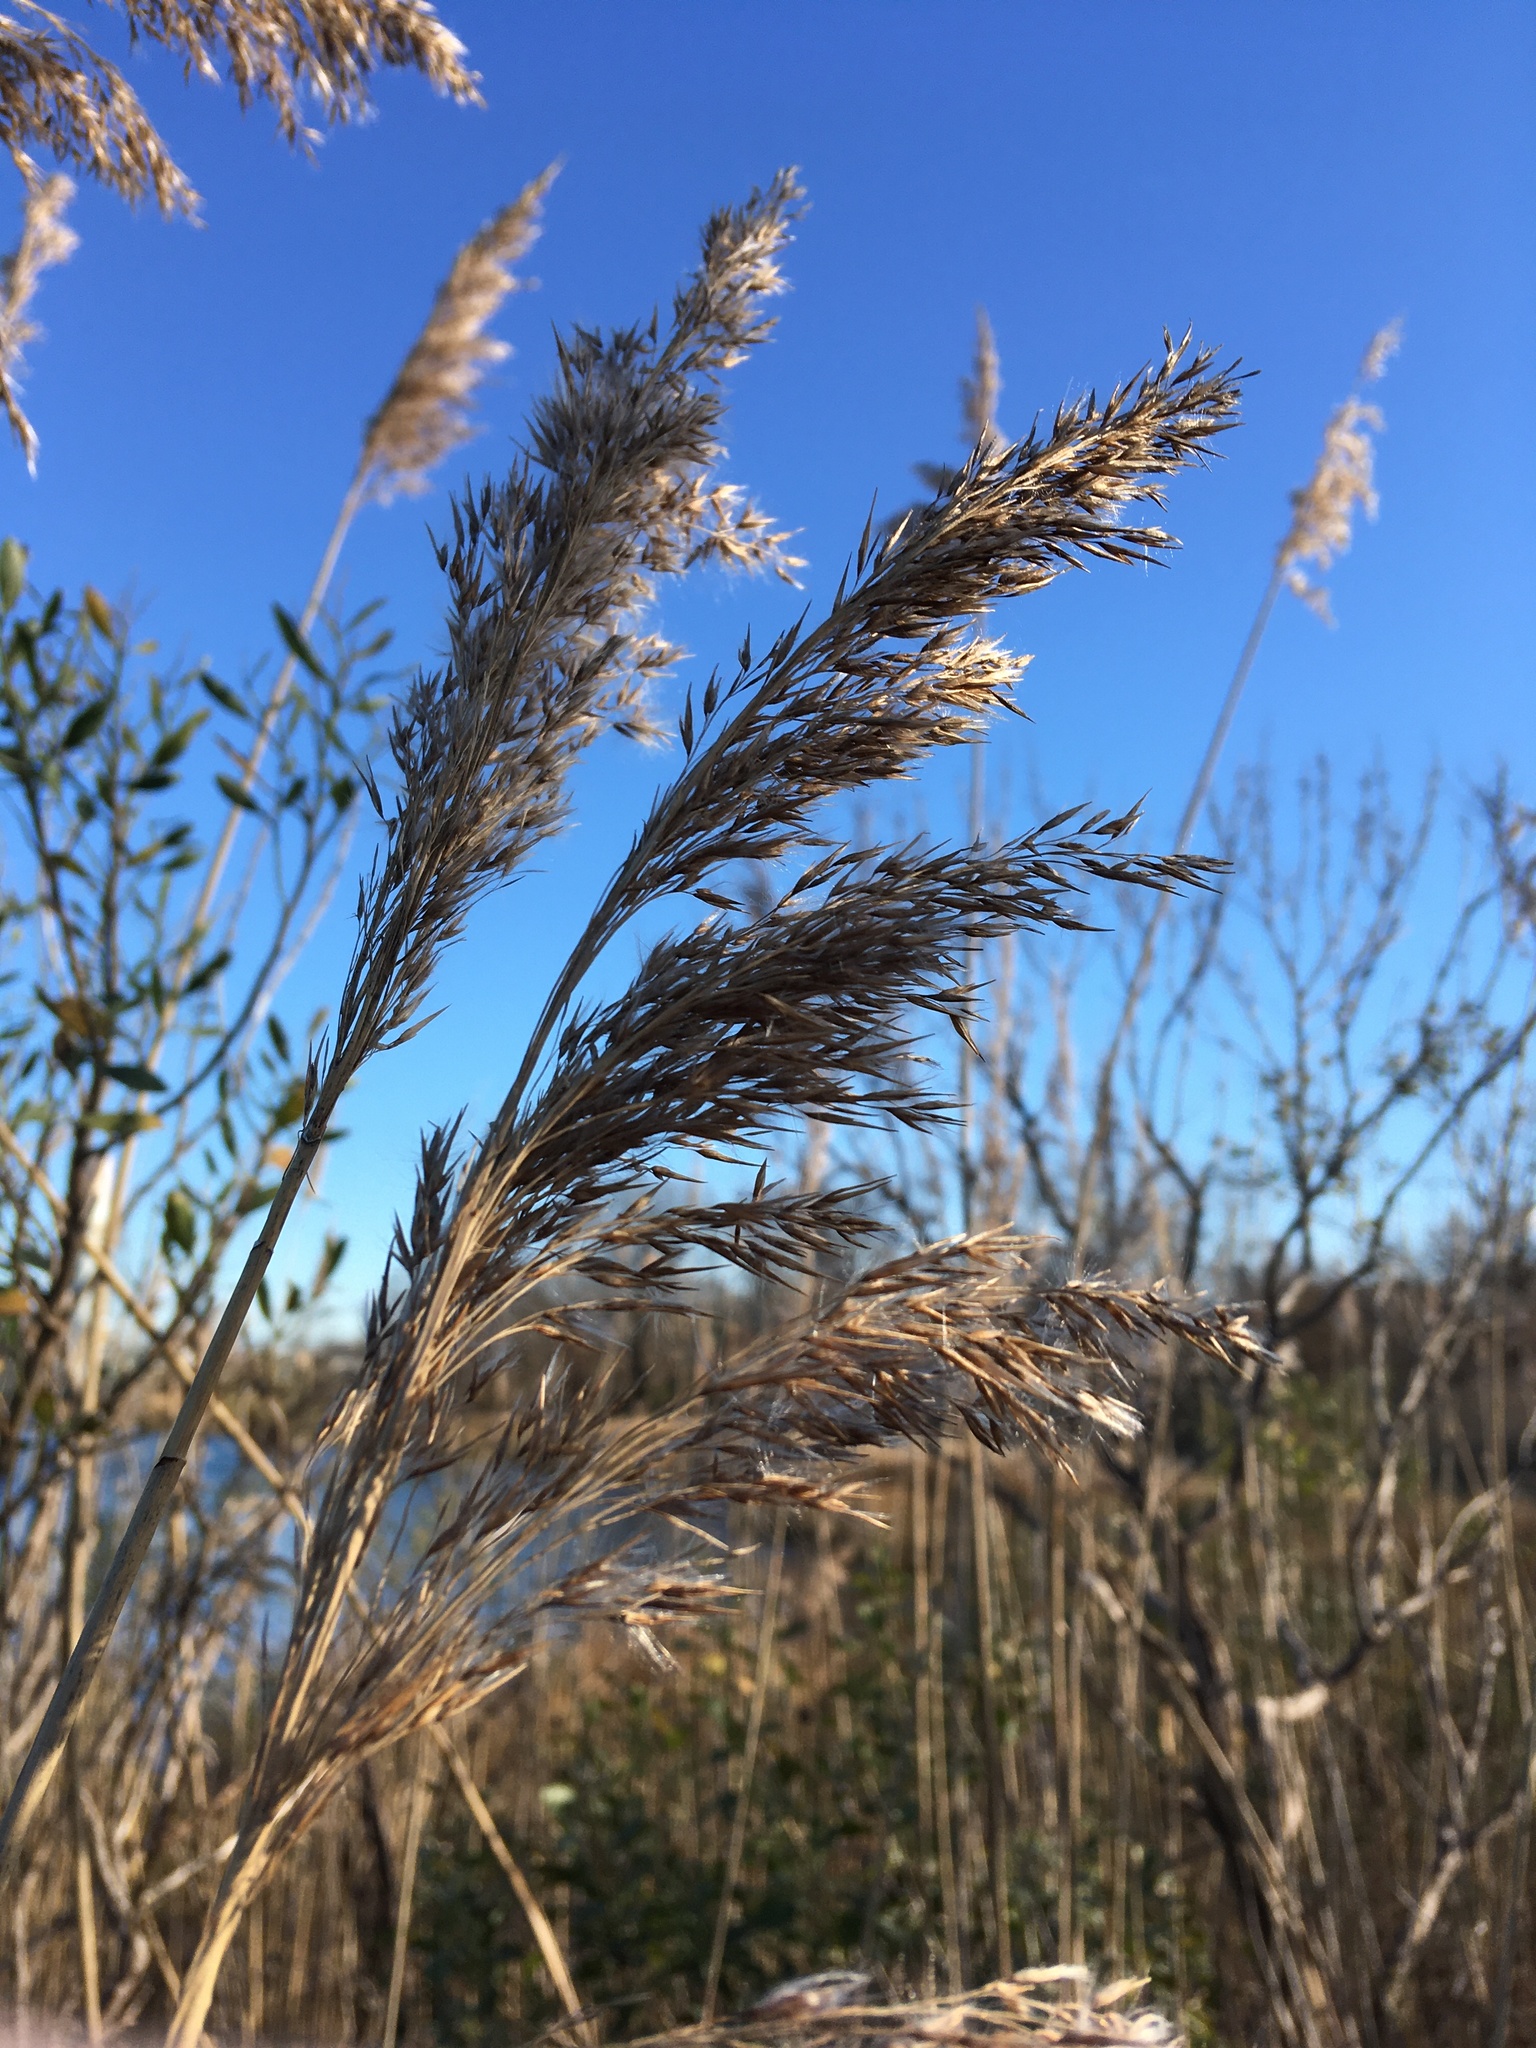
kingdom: Plantae
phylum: Tracheophyta
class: Liliopsida
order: Poales
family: Poaceae
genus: Phragmites
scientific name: Phragmites australis
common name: Common reed
